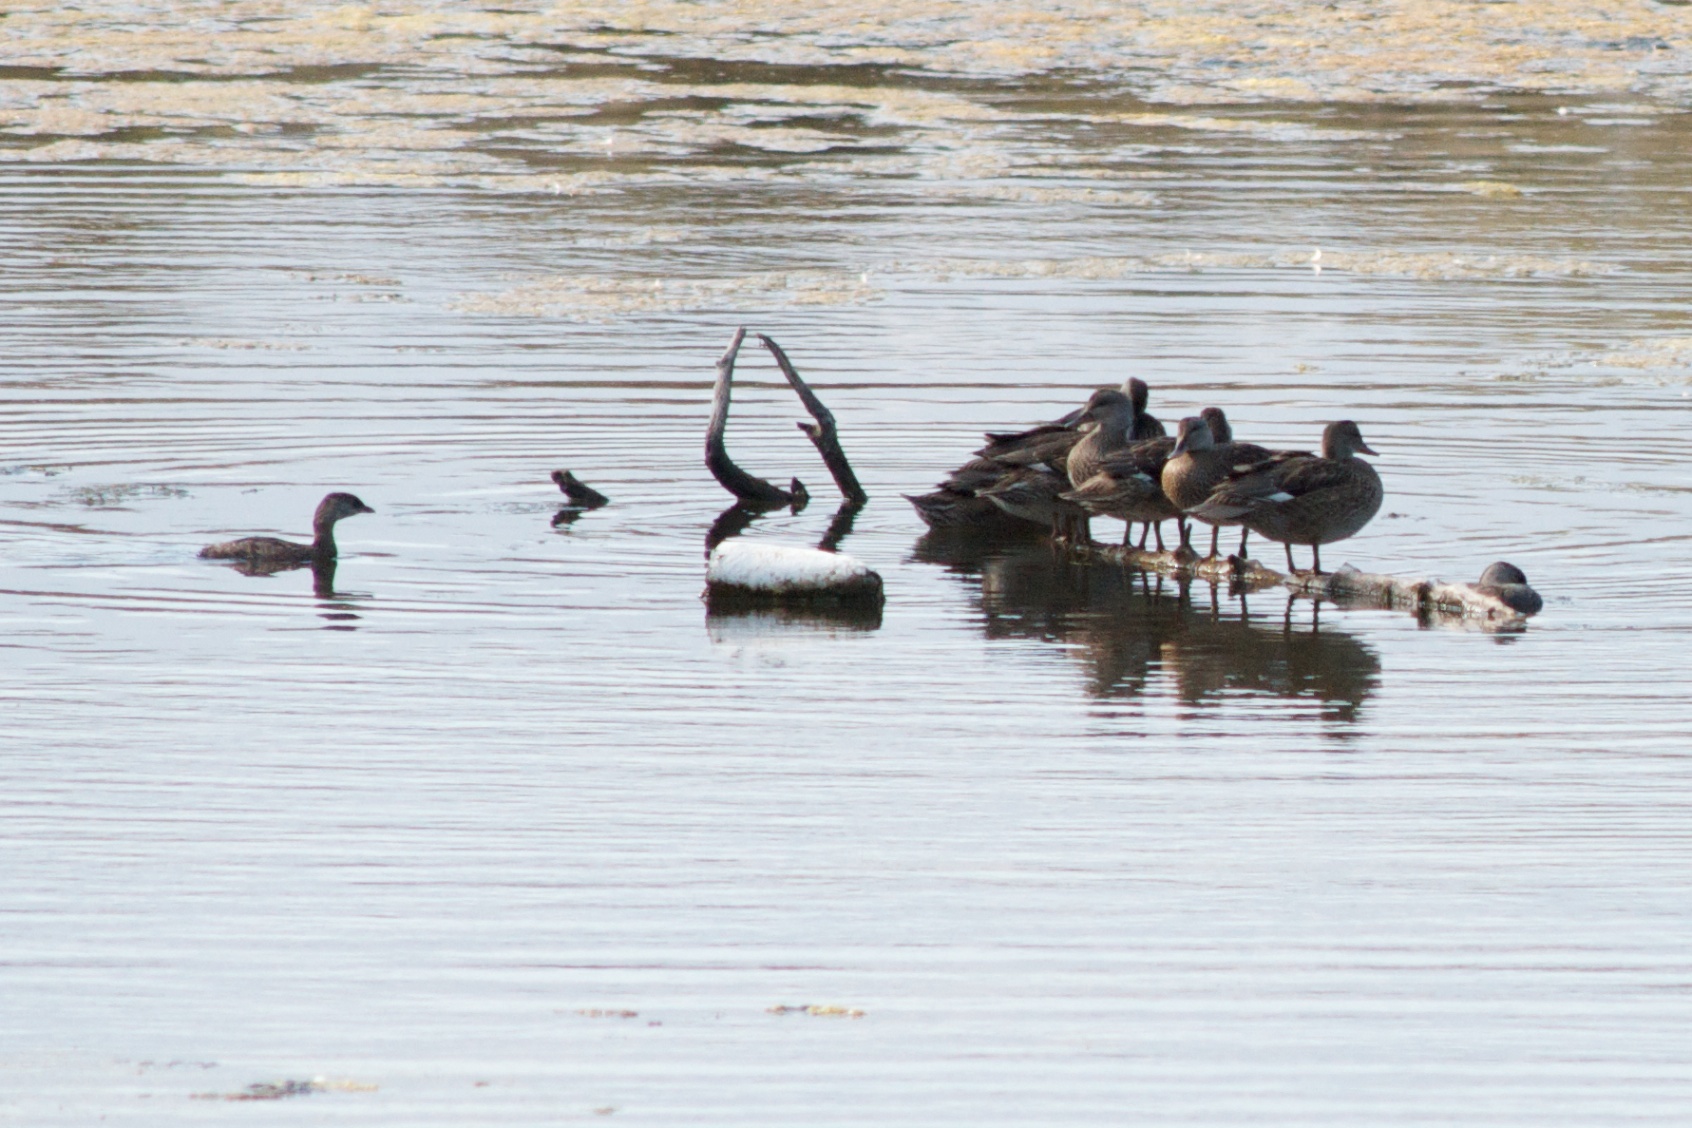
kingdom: Animalia
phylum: Chordata
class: Aves
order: Podicipediformes
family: Podicipedidae
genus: Podilymbus
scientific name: Podilymbus podiceps
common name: Pied-billed grebe
